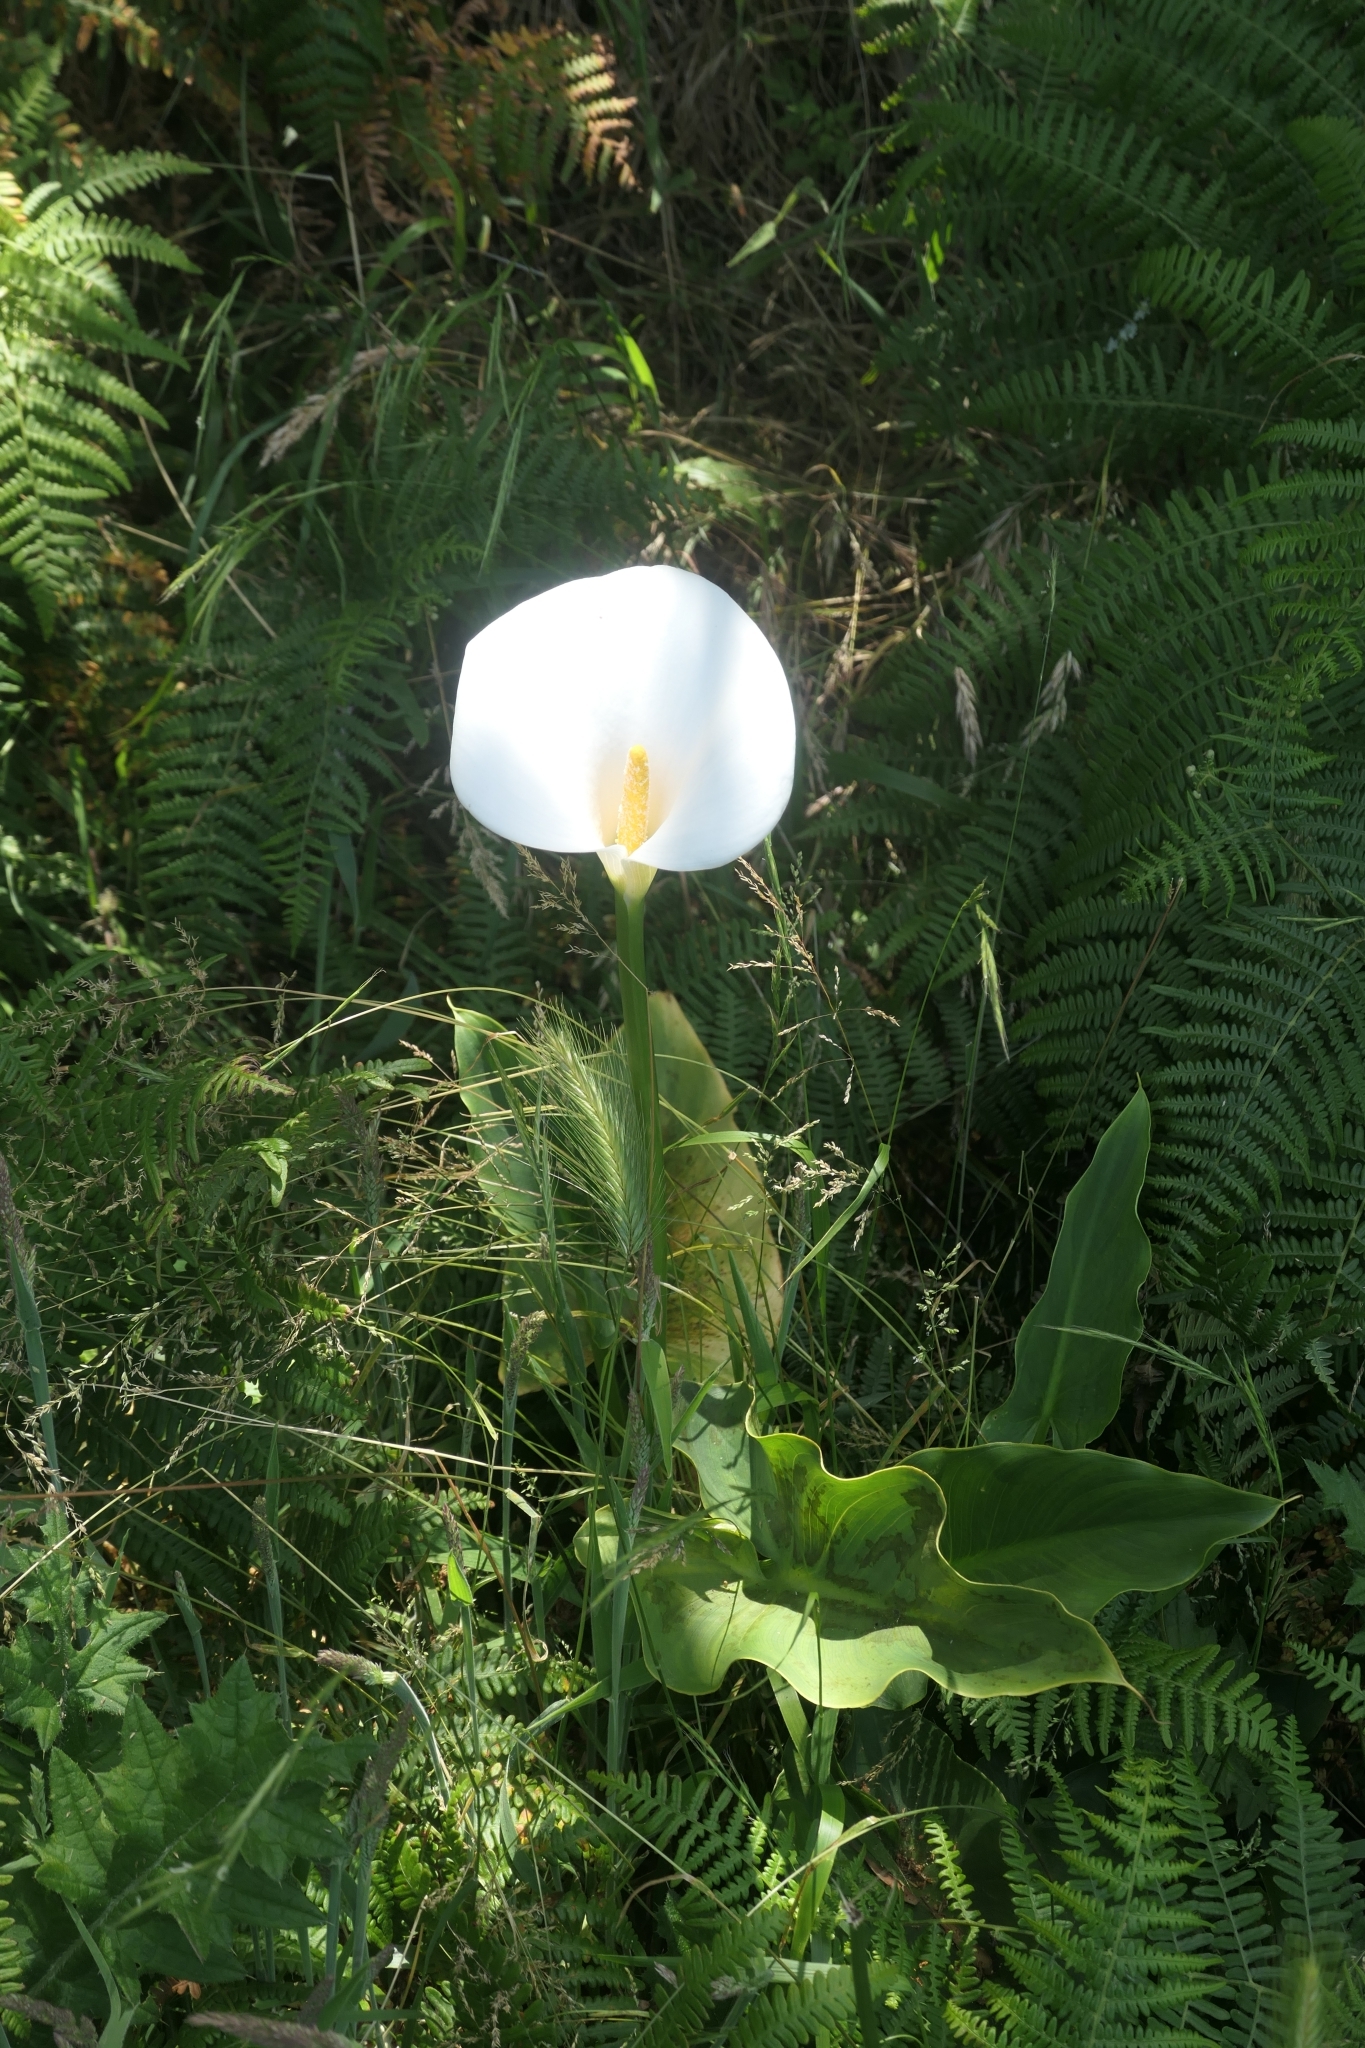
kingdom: Plantae
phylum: Tracheophyta
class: Liliopsida
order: Alismatales
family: Araceae
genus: Zantedeschia
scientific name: Zantedeschia aethiopica
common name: Altar-lily
